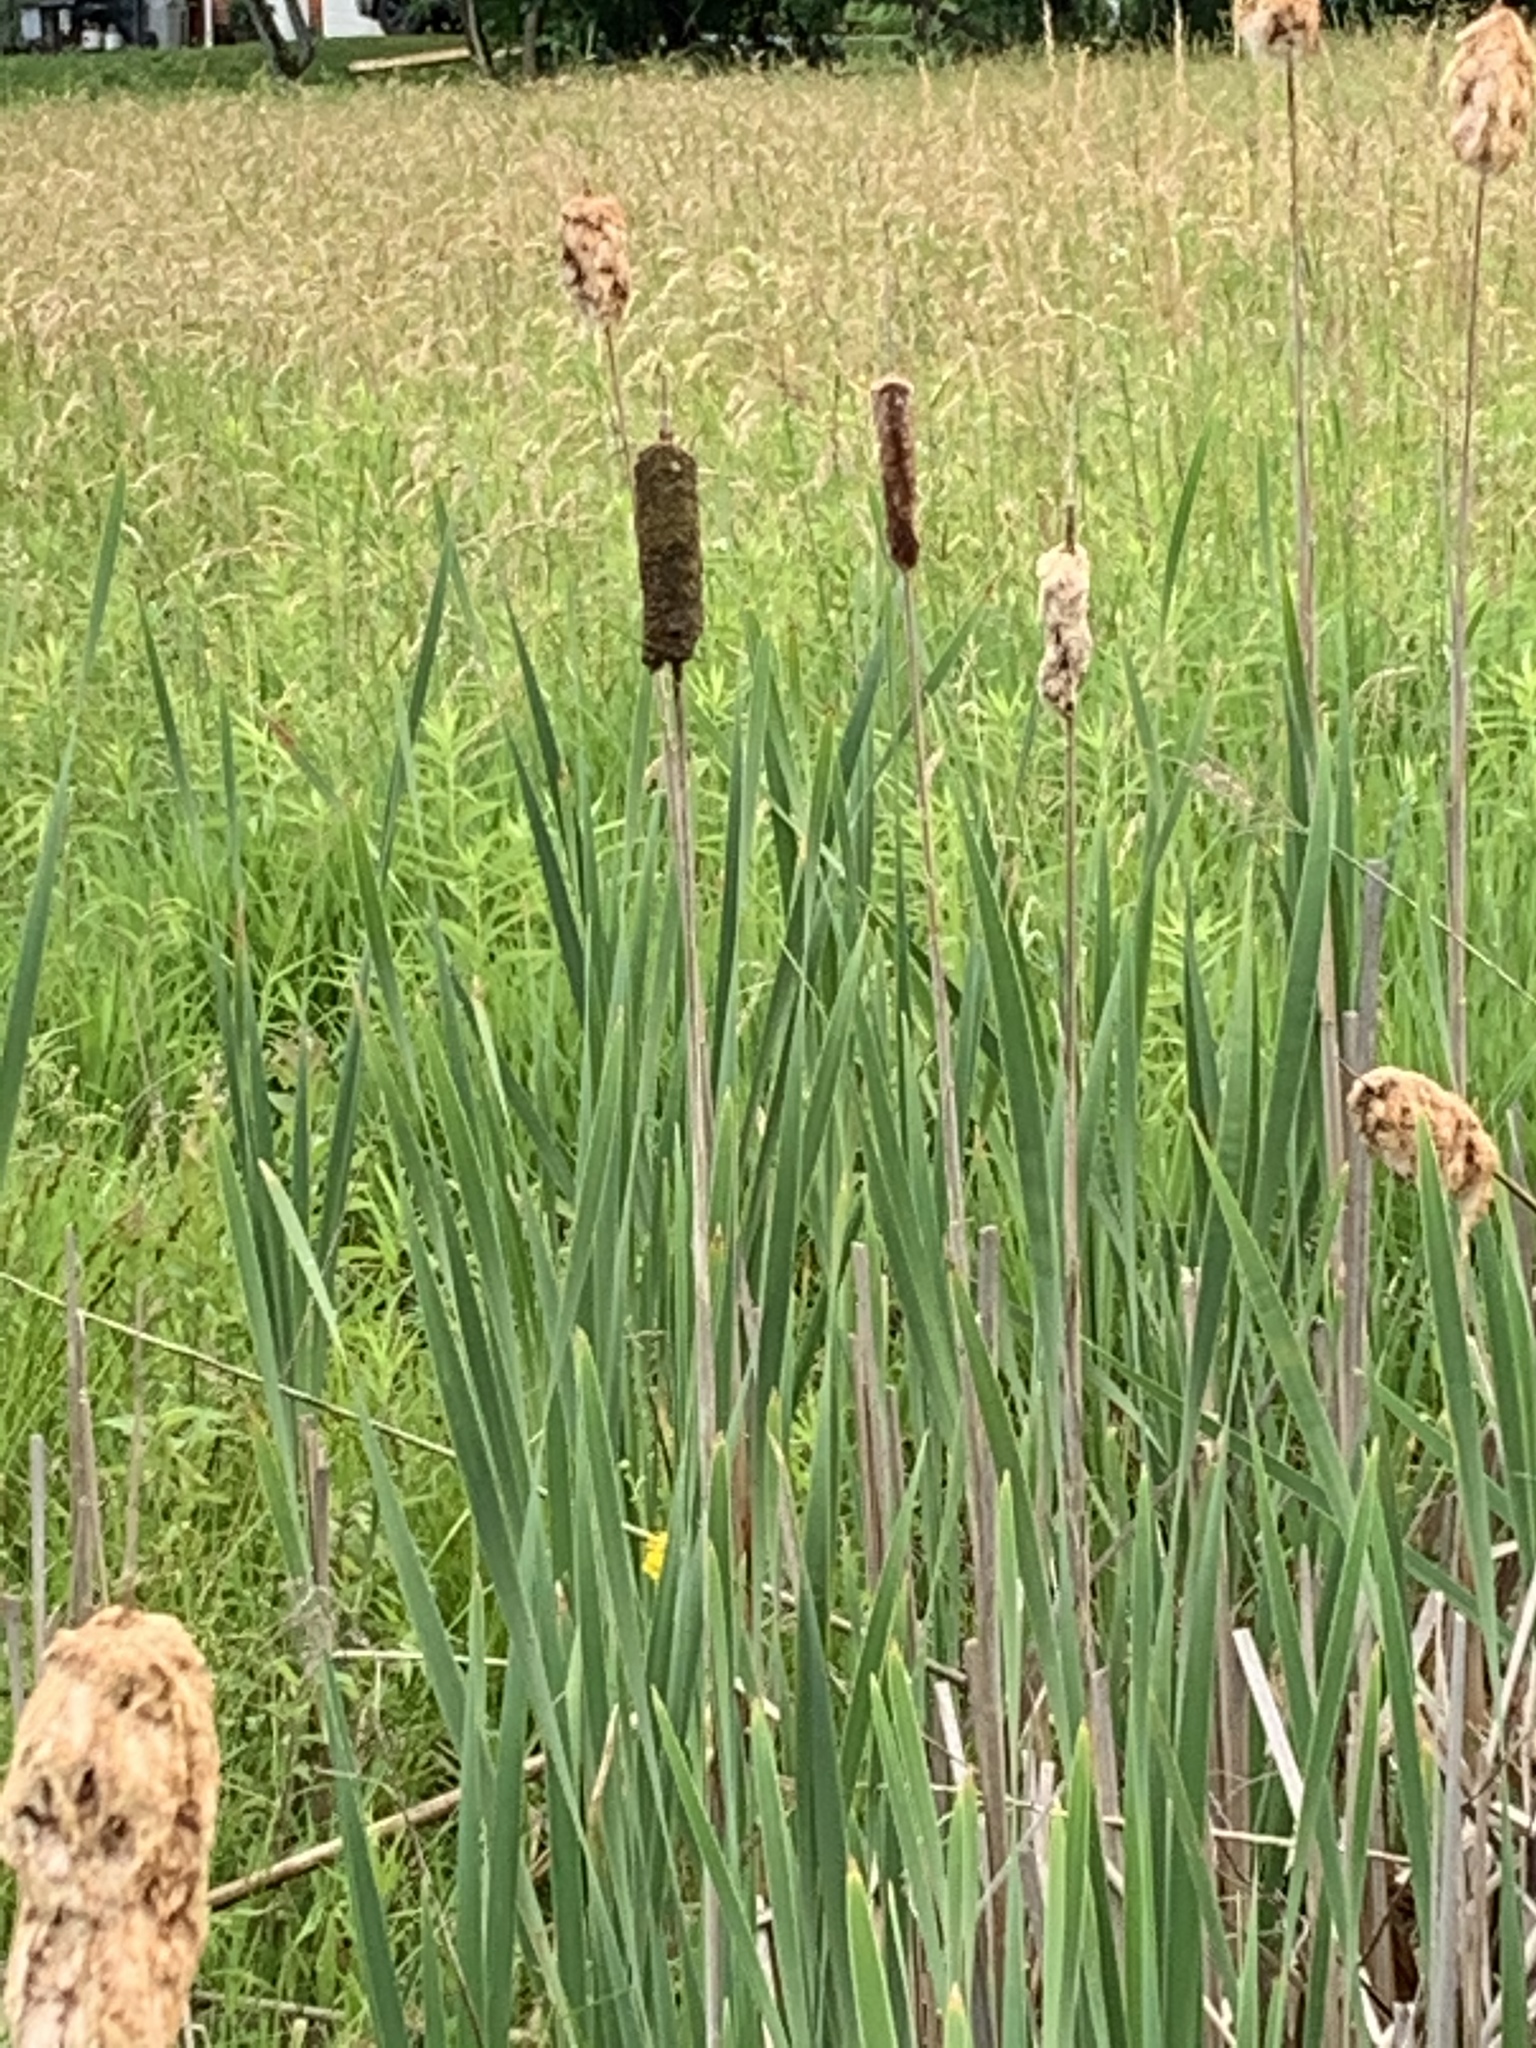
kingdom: Plantae
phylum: Tracheophyta
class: Liliopsida
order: Poales
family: Typhaceae
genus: Typha
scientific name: Typha angustifolia
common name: Lesser bulrush
